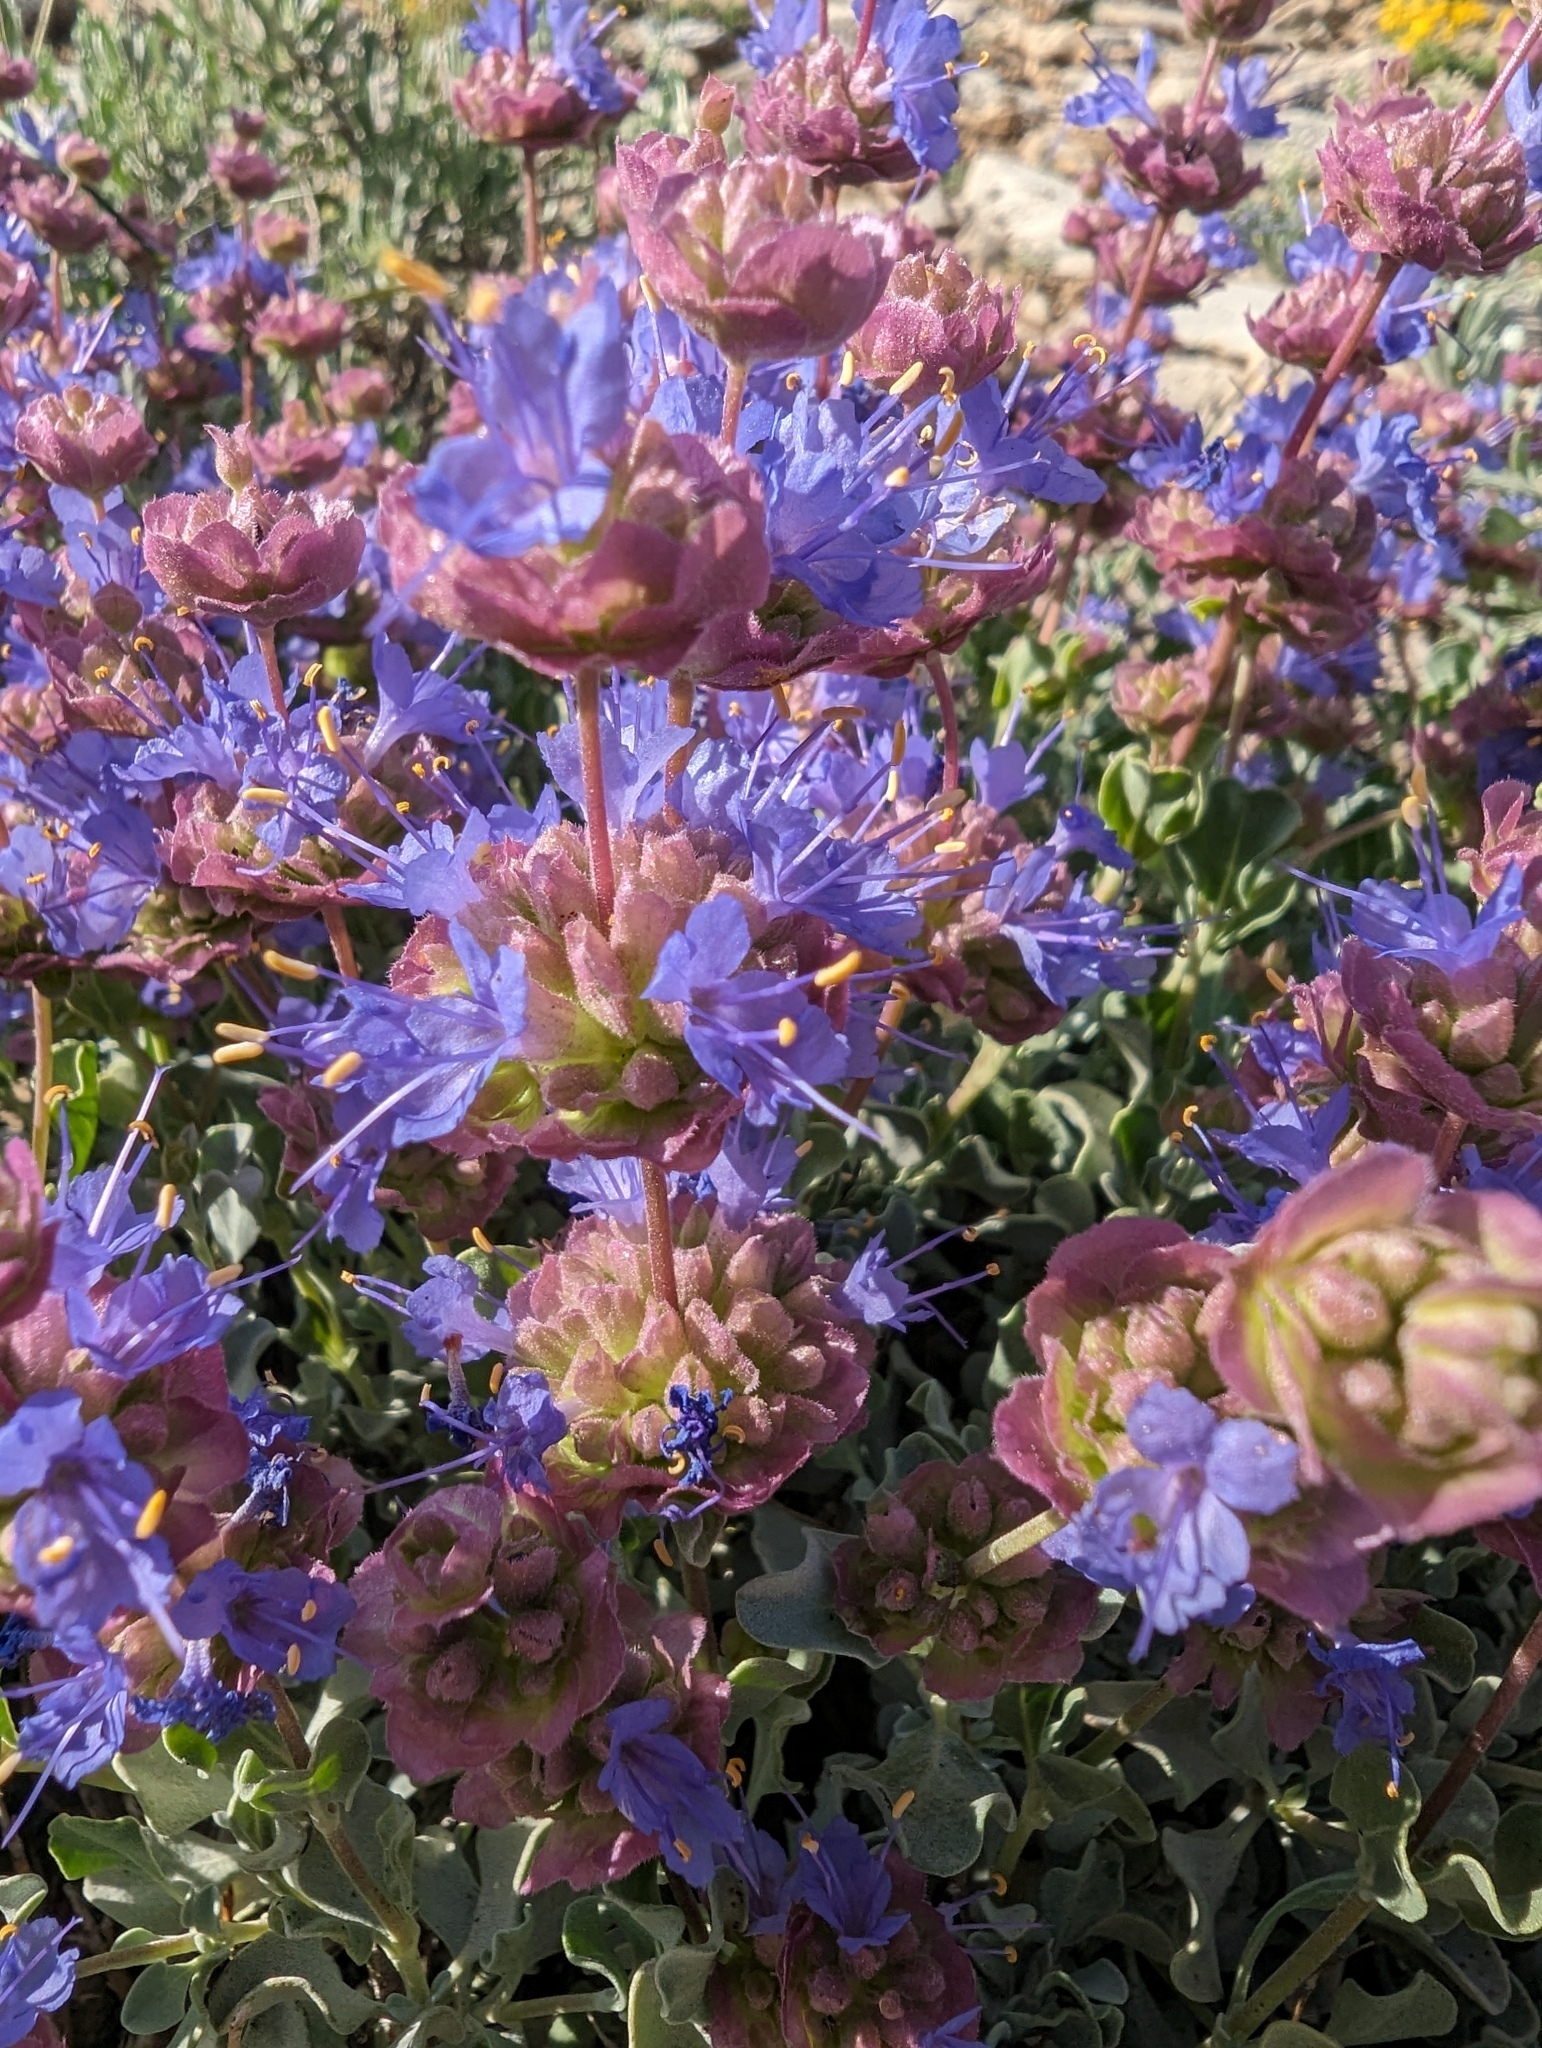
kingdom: Plantae
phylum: Tracheophyta
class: Magnoliopsida
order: Lamiales
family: Lamiaceae
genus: Salvia
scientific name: Salvia dorrii
